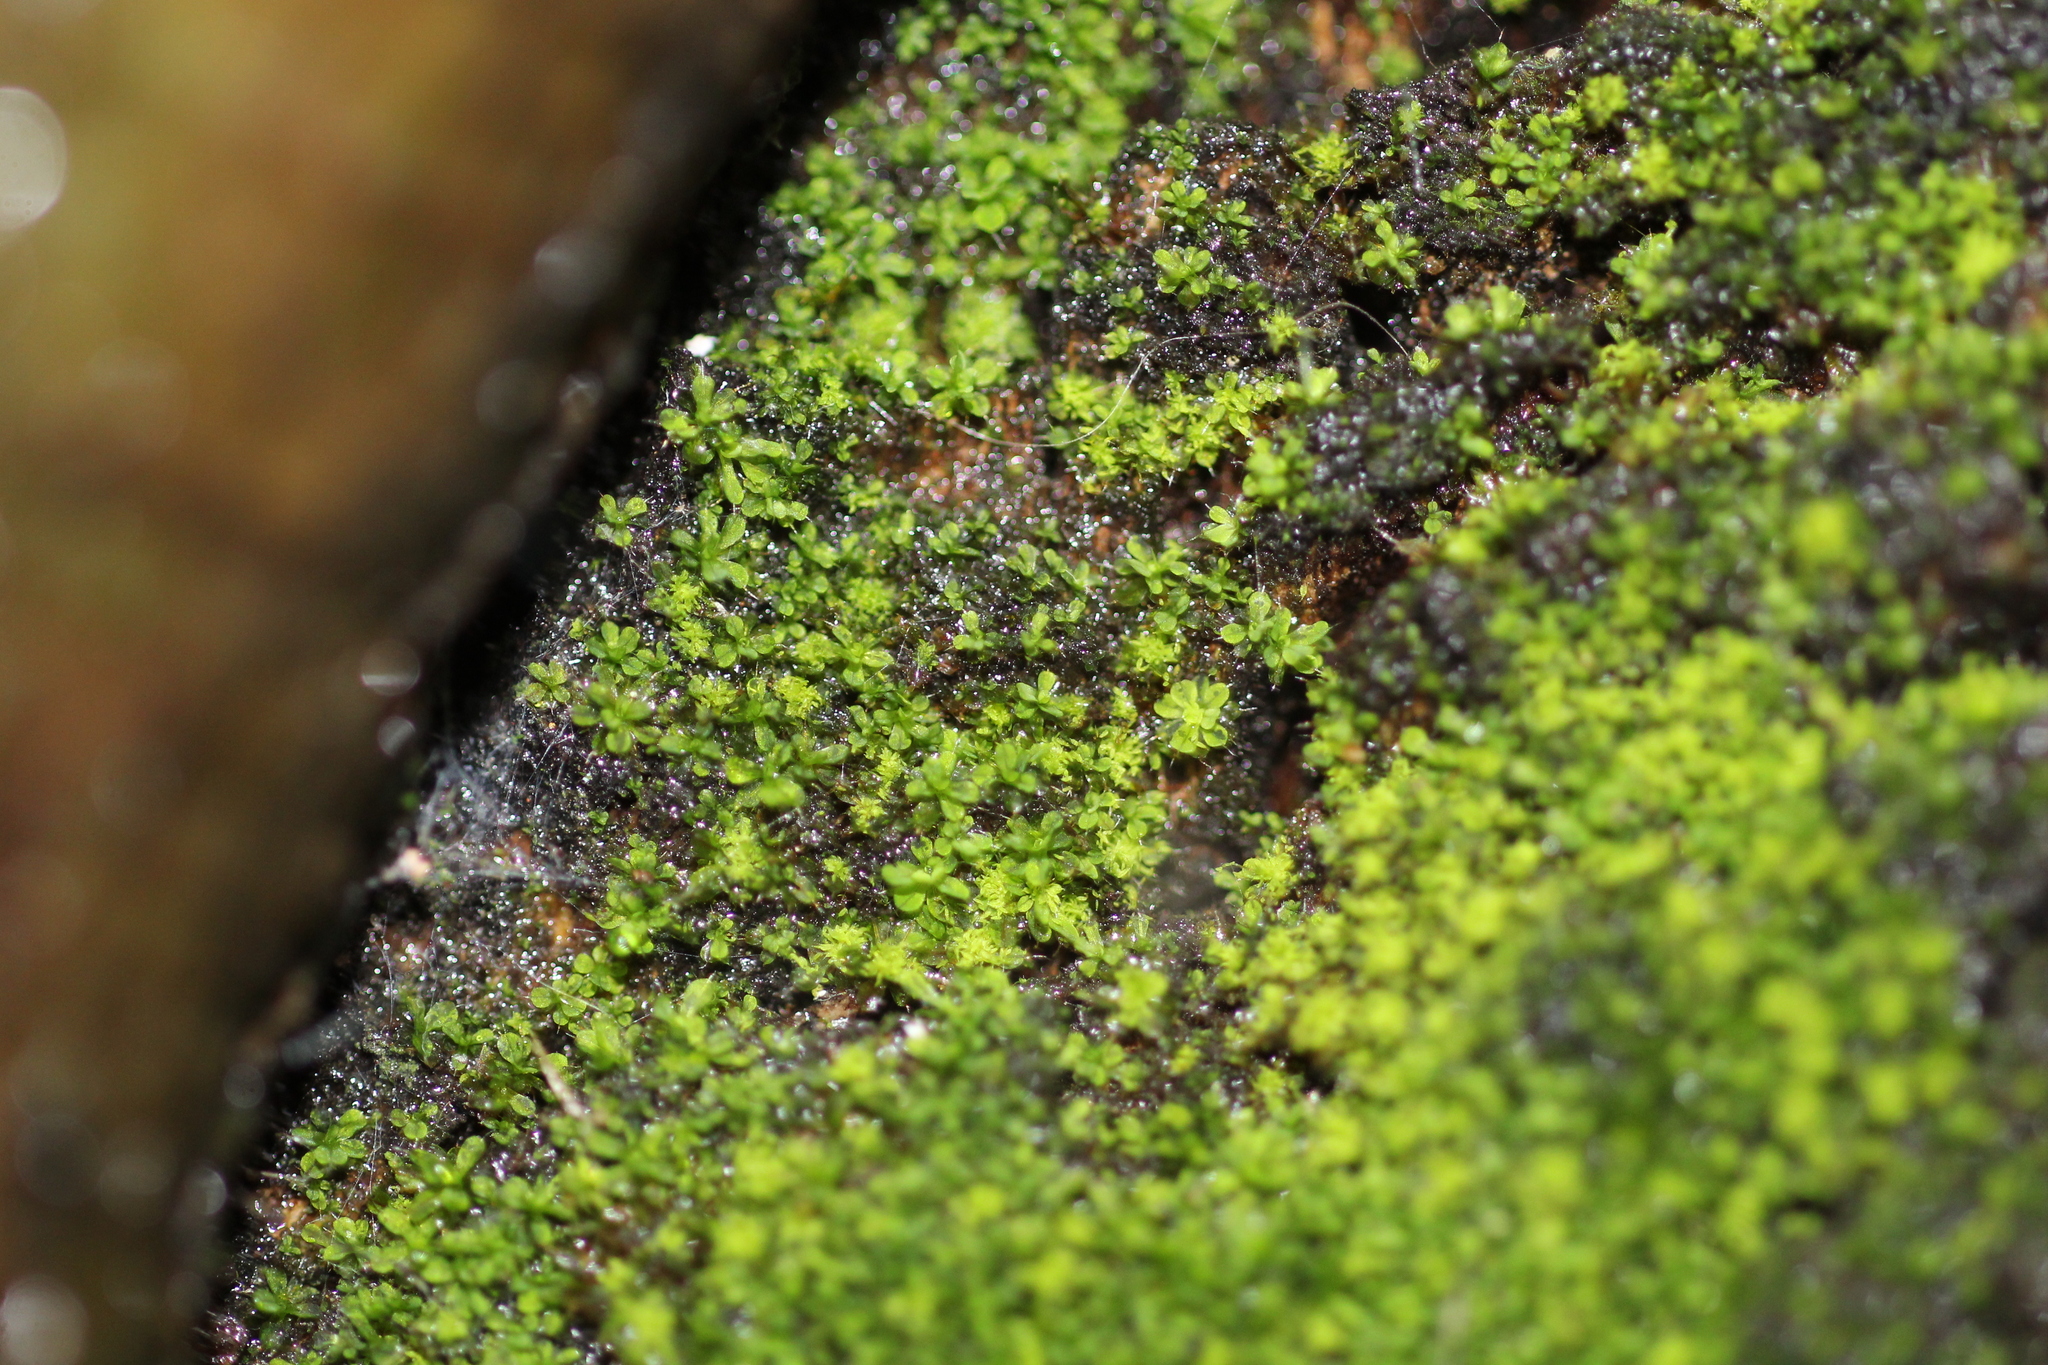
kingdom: Plantae
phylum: Bryophyta
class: Bryopsida
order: Pottiales
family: Pottiaceae
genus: Syntrichia
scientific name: Syntrichia pagorum
